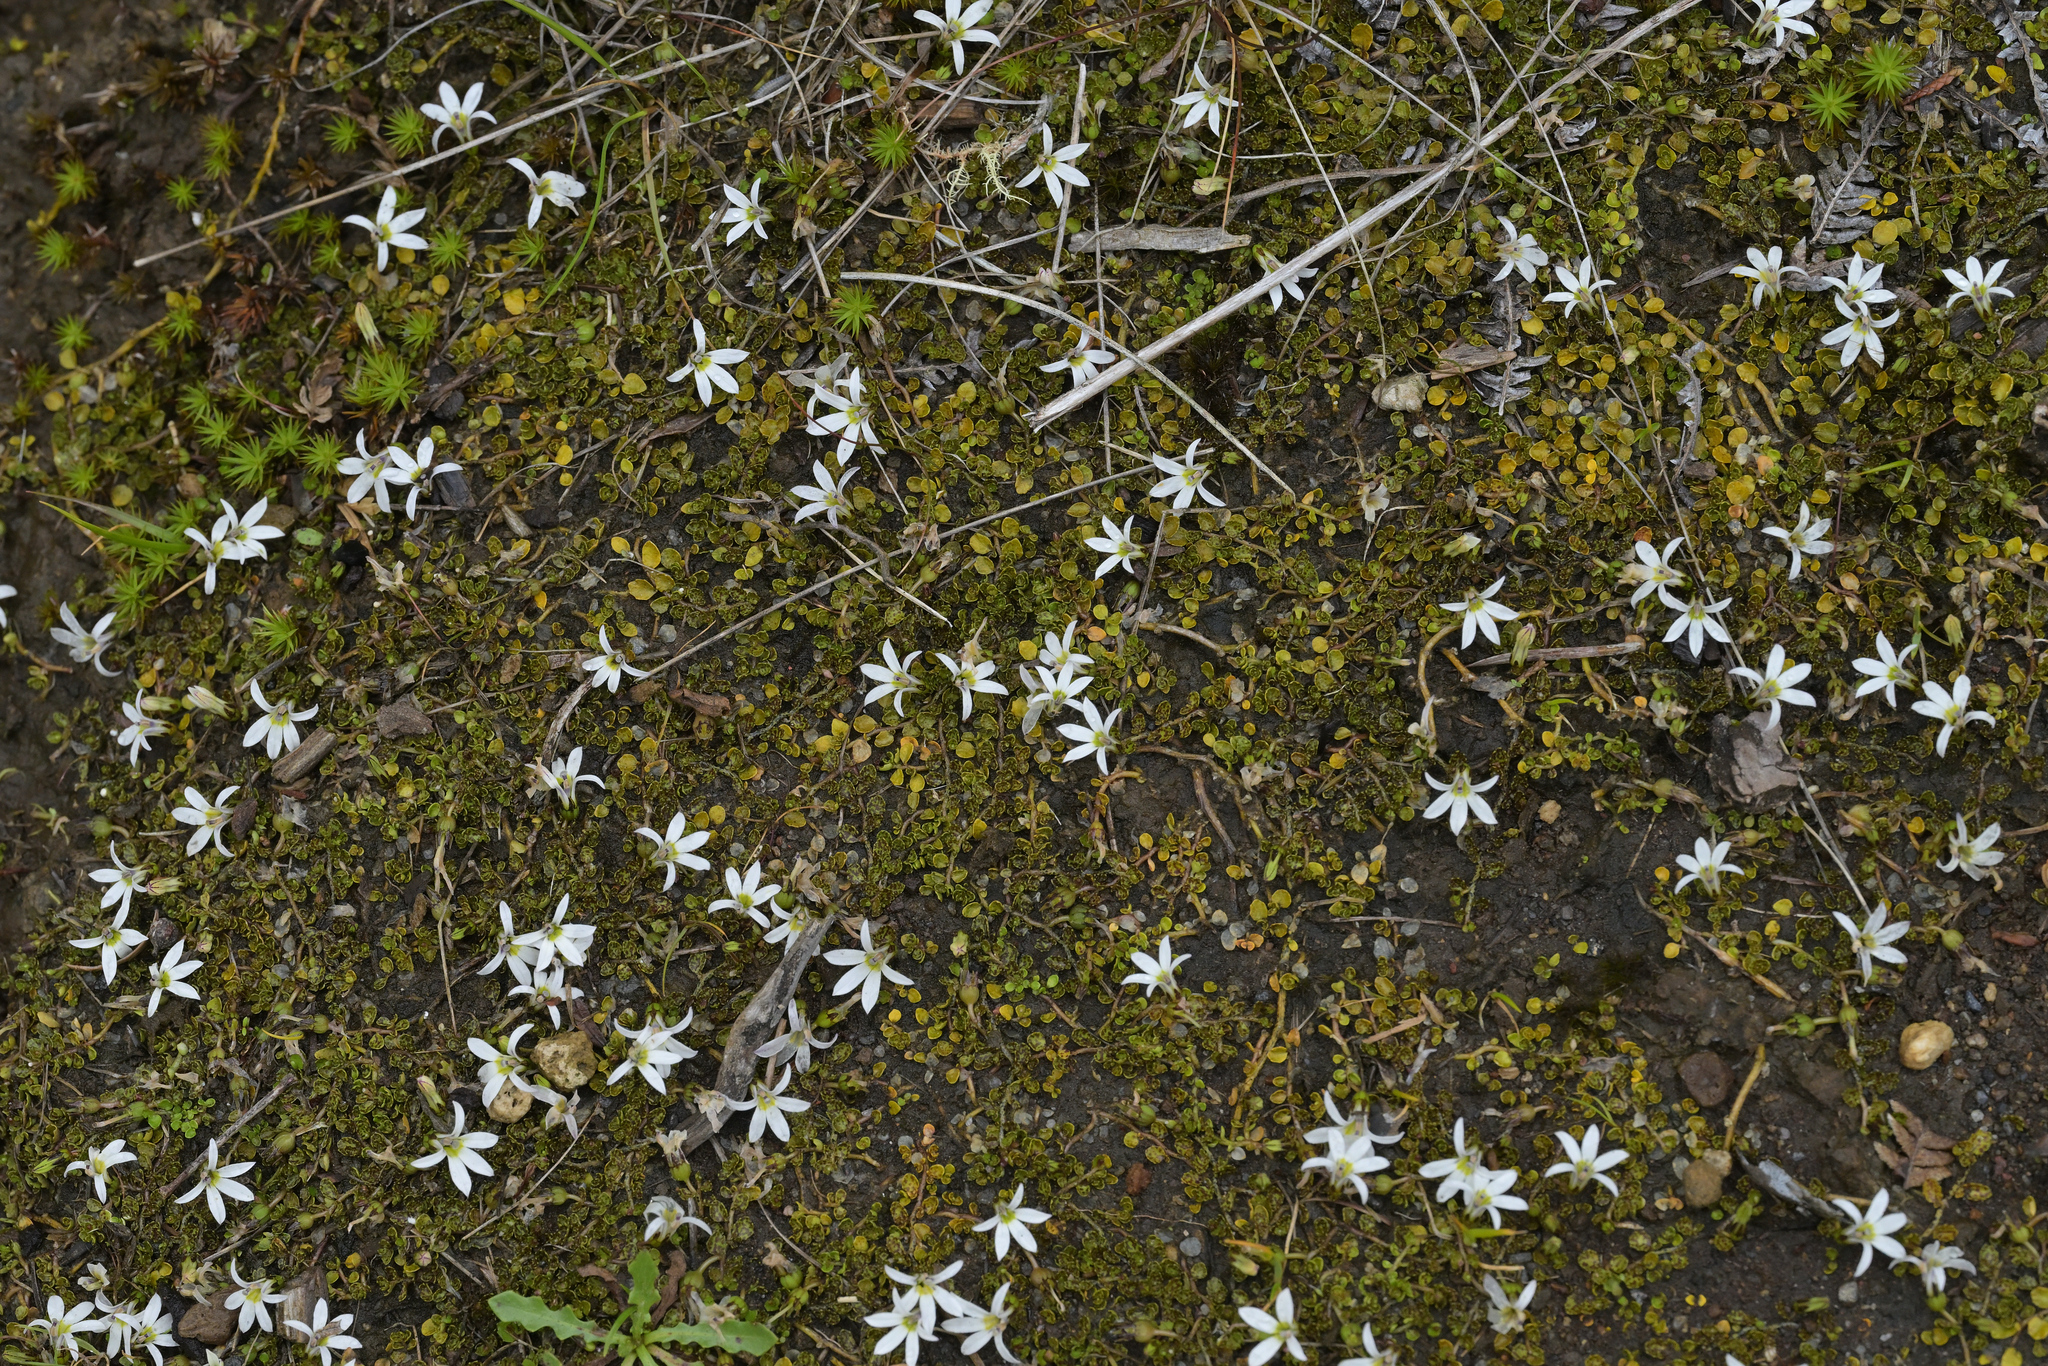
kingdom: Plantae
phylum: Tracheophyta
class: Magnoliopsida
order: Asterales
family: Campanulaceae
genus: Lobelia
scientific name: Lobelia angulata
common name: Lawn lobelia
